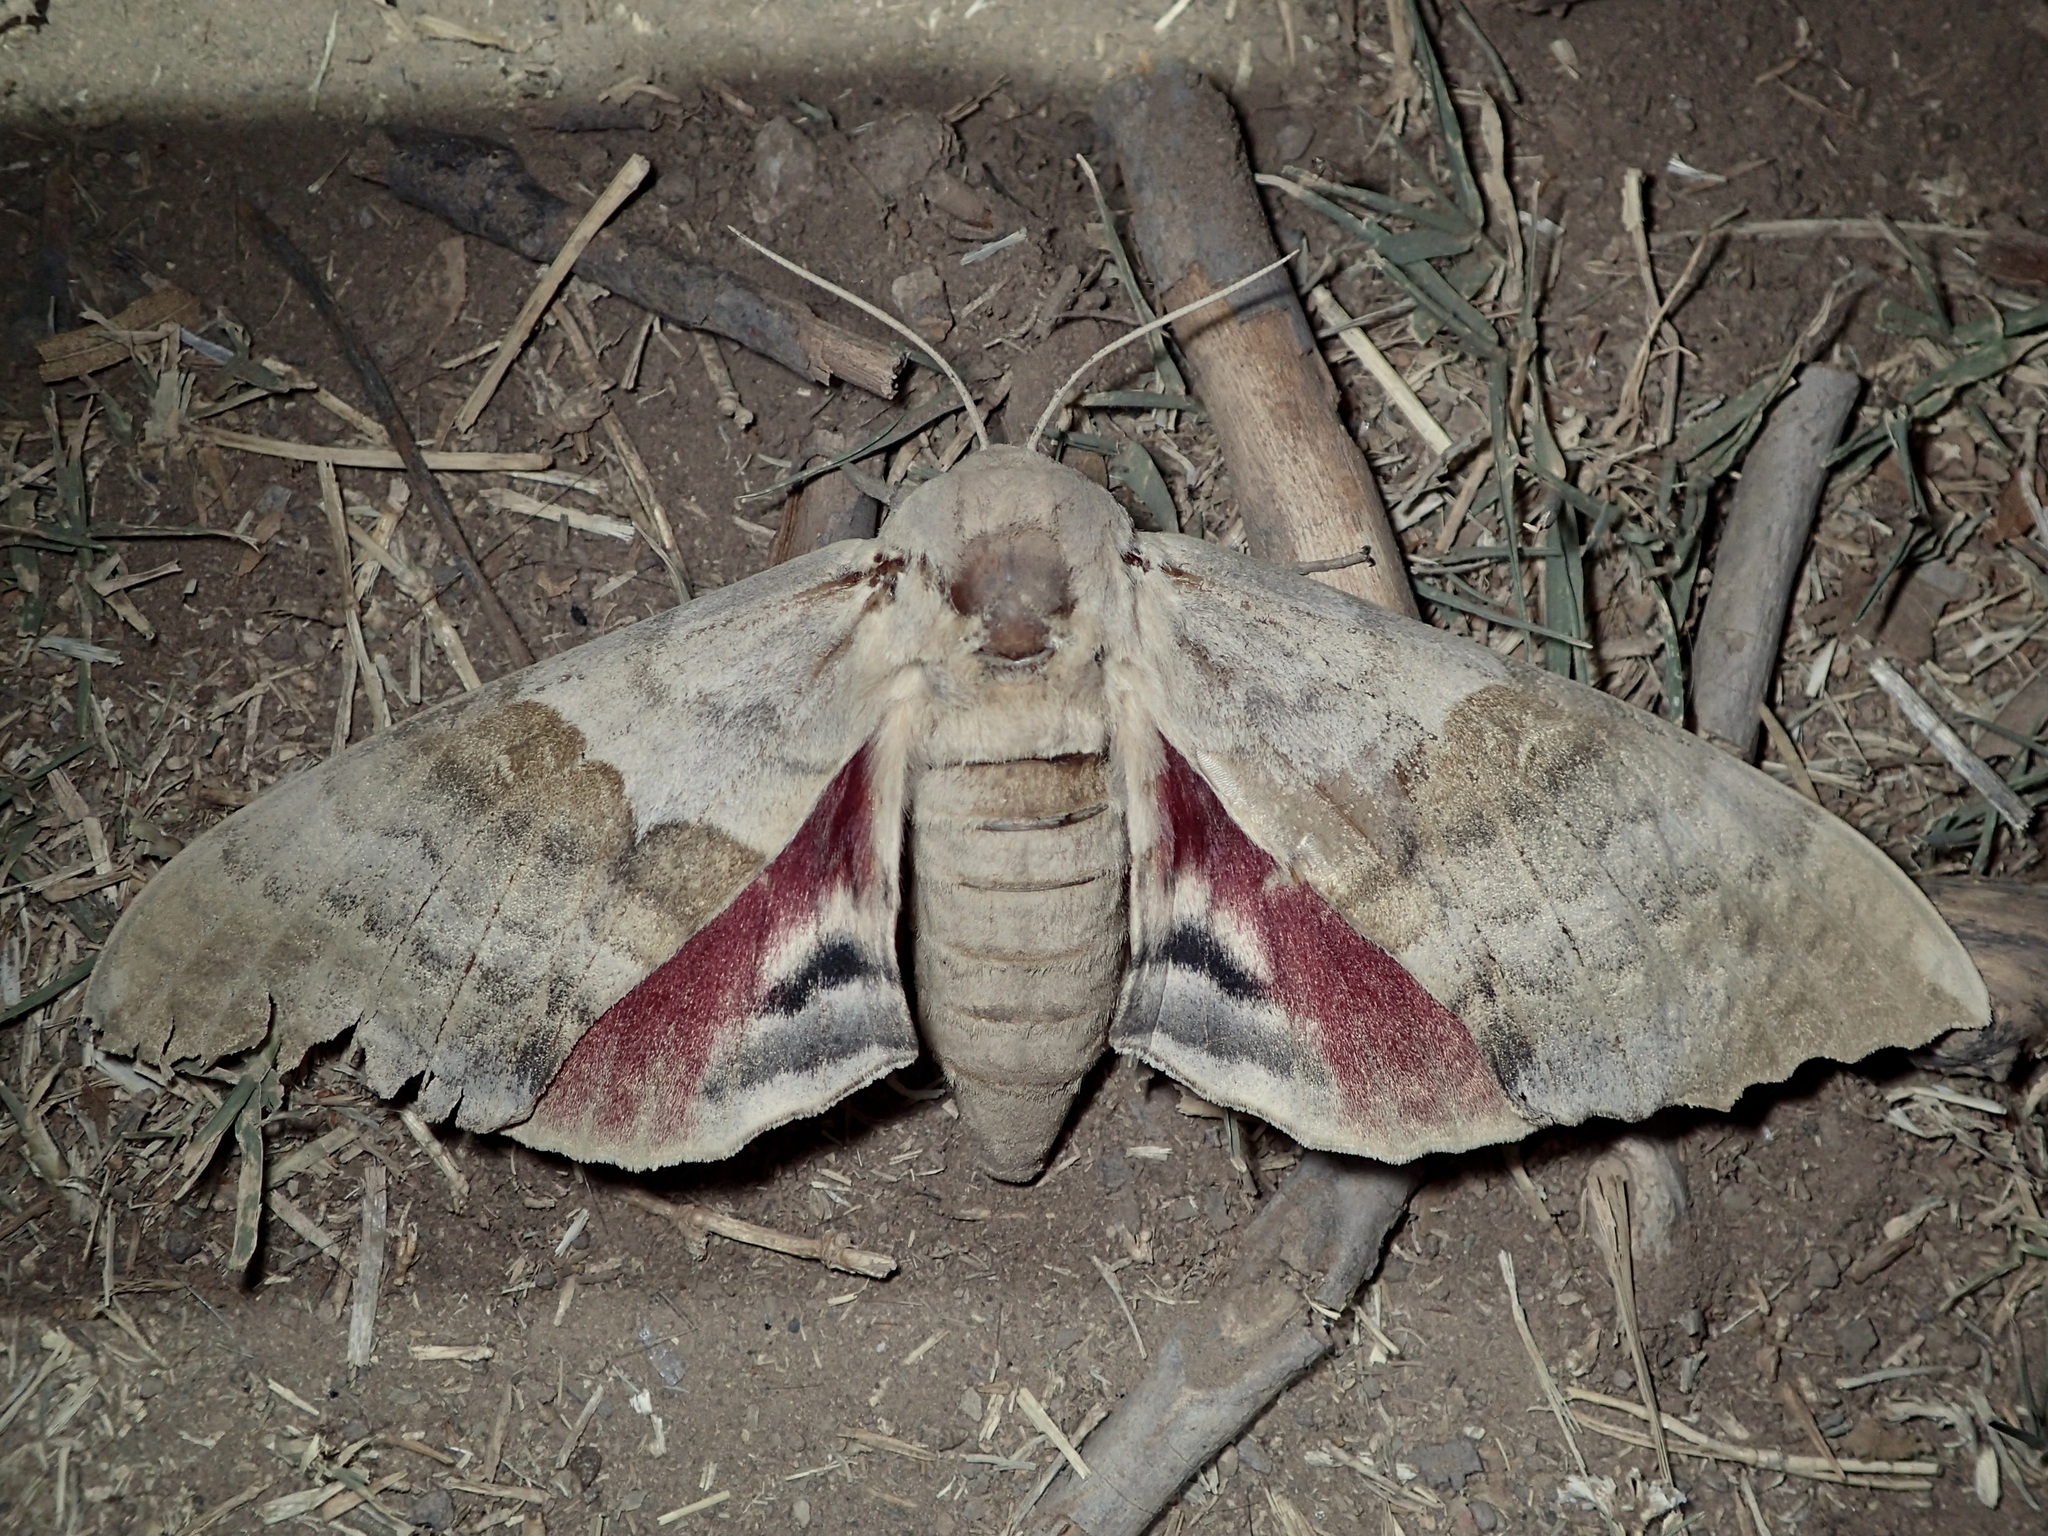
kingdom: Animalia
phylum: Arthropoda
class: Insecta
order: Lepidoptera
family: Sphingidae
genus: Pachysphinx
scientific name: Pachysphinx occidentalis
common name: Western poplar sphinx
